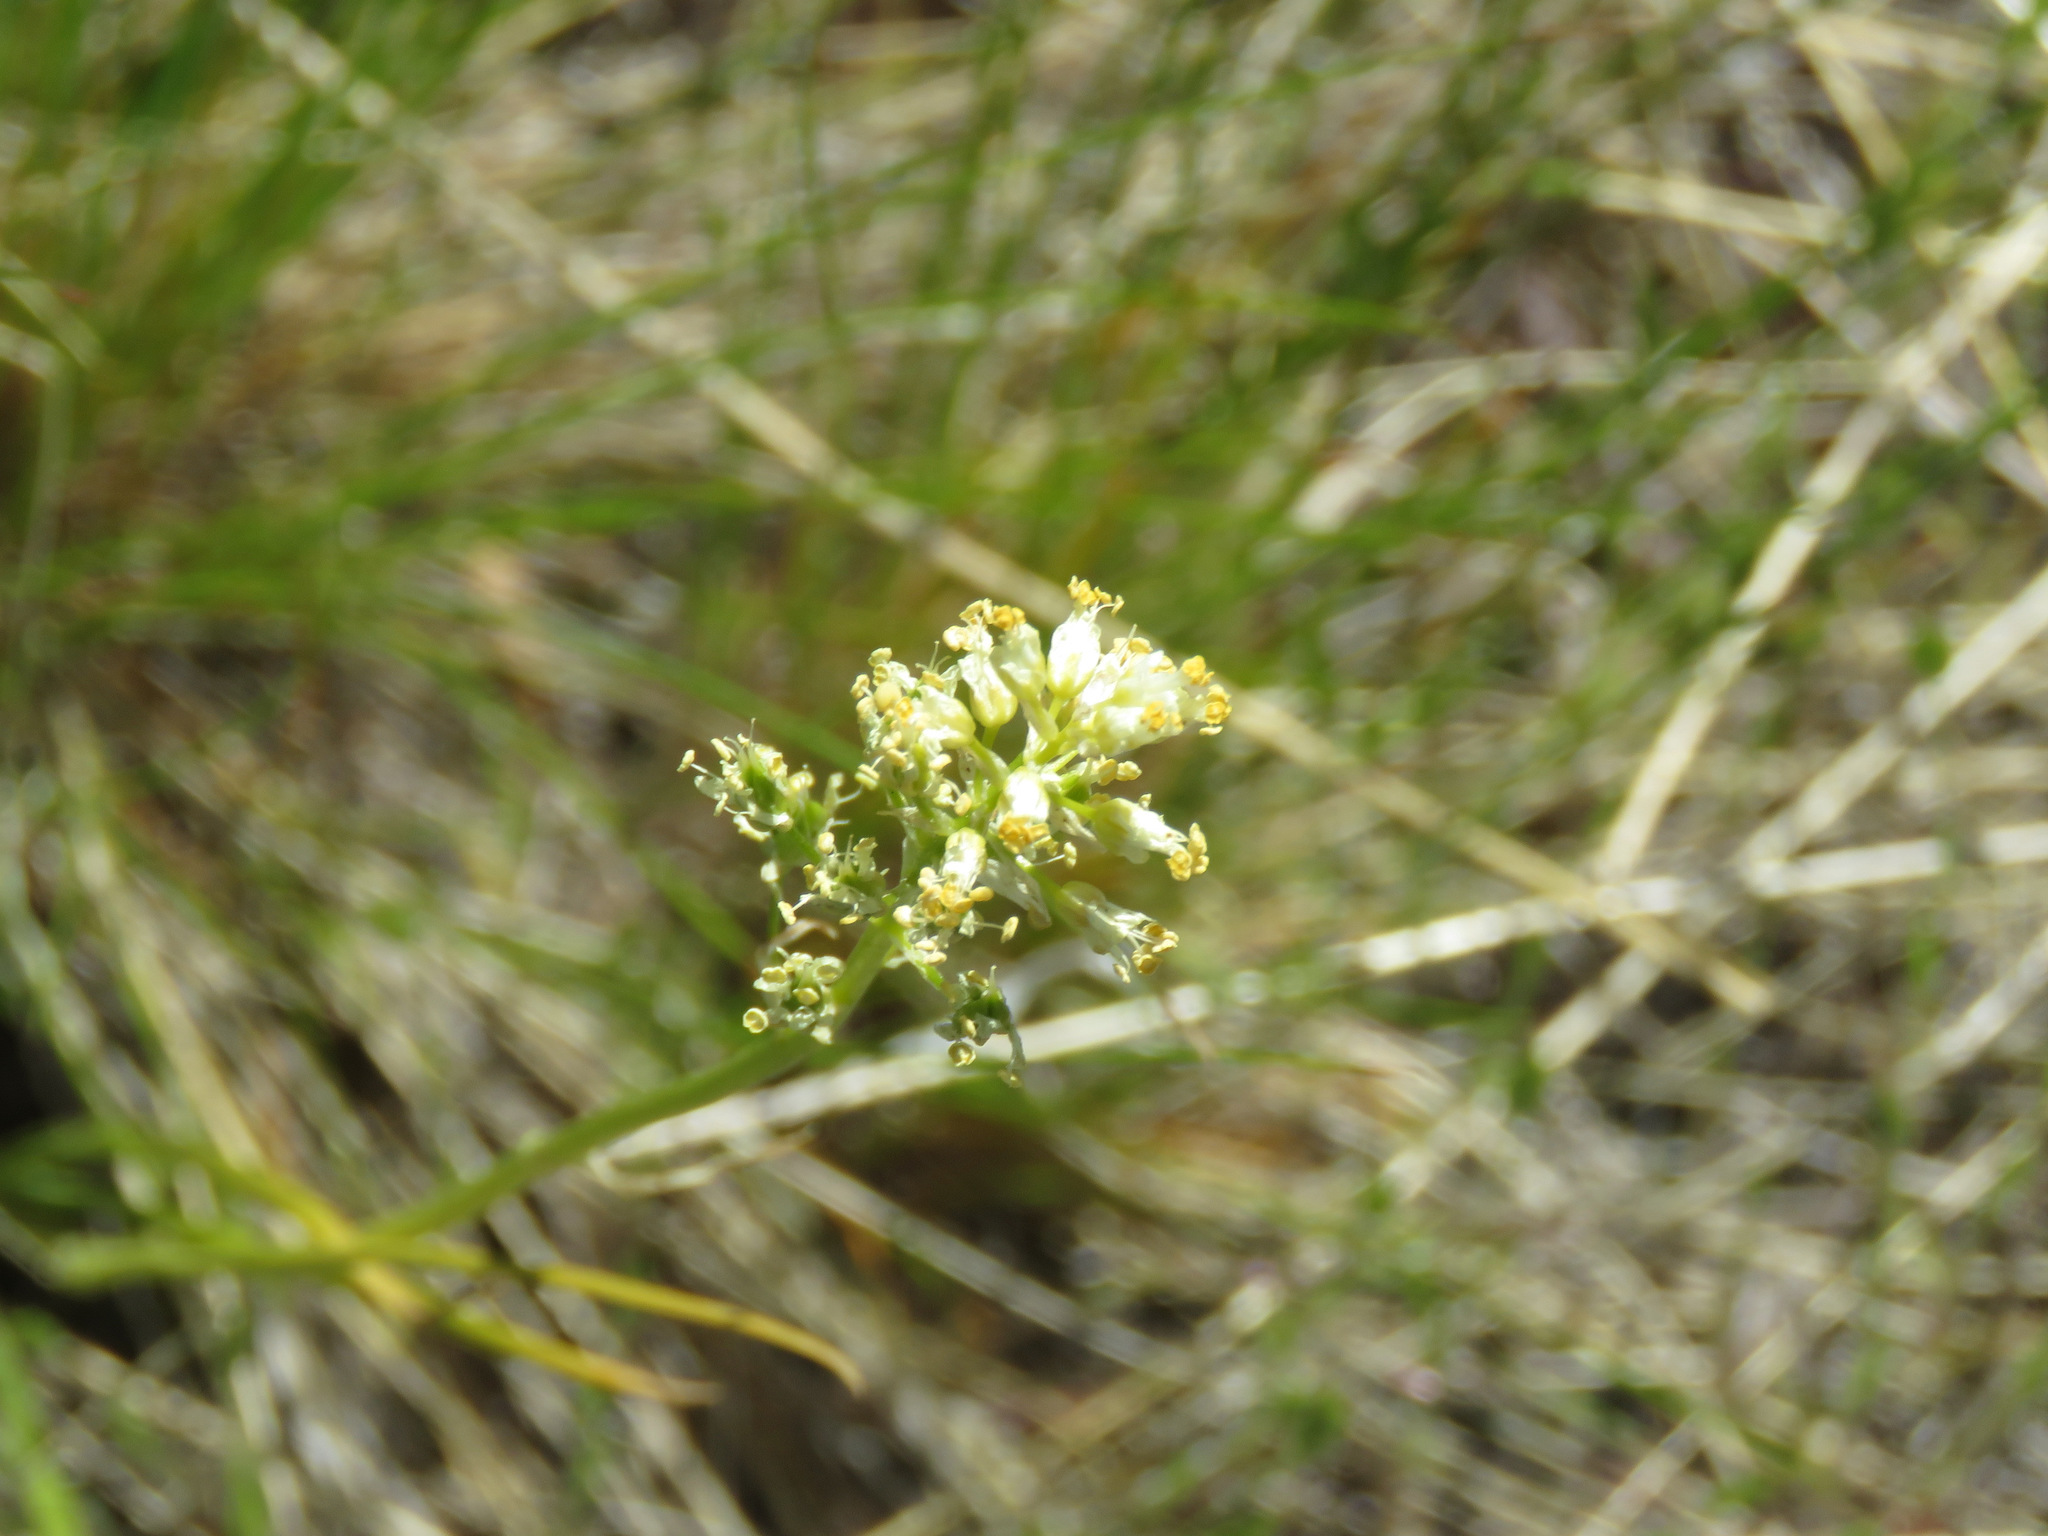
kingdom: Plantae
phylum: Tracheophyta
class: Liliopsida
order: Liliales
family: Melanthiaceae
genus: Toxicoscordion
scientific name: Toxicoscordion venenosum
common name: Meadow death camas
